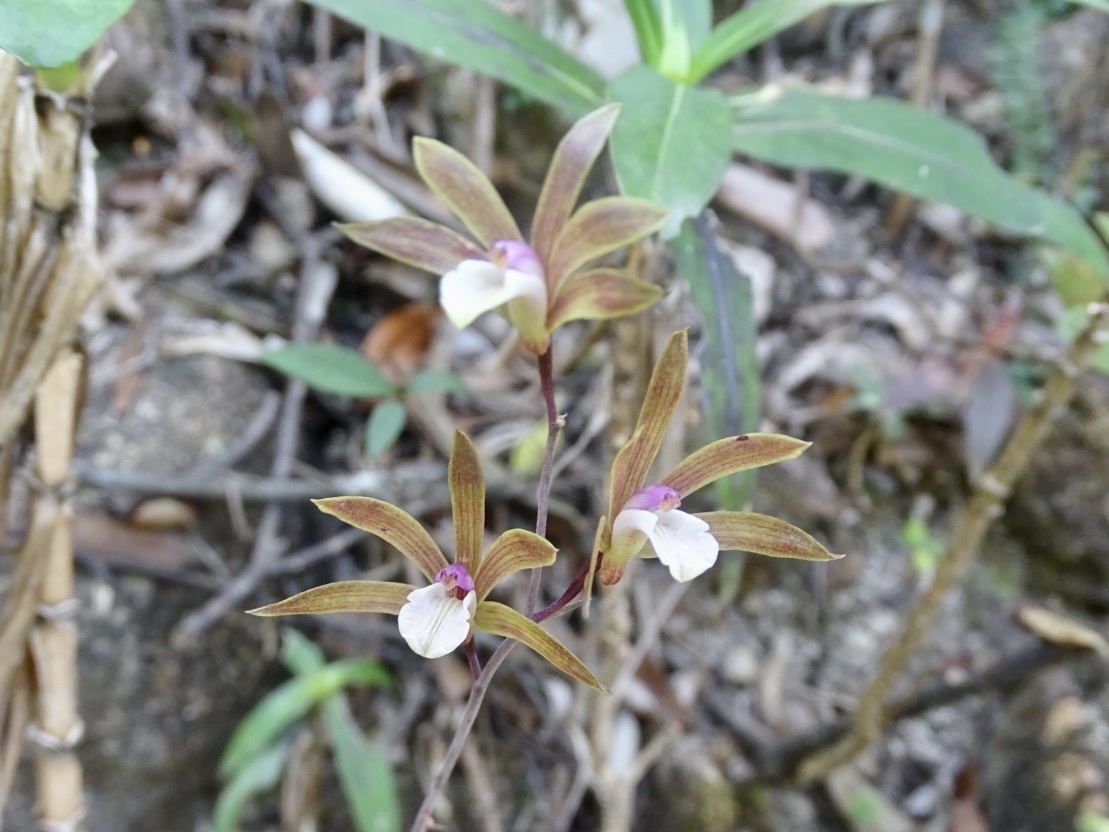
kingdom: Plantae
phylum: Tracheophyta
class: Liliopsida
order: Asparagales
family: Orchidaceae
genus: Ania
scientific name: Ania hongkongensis
